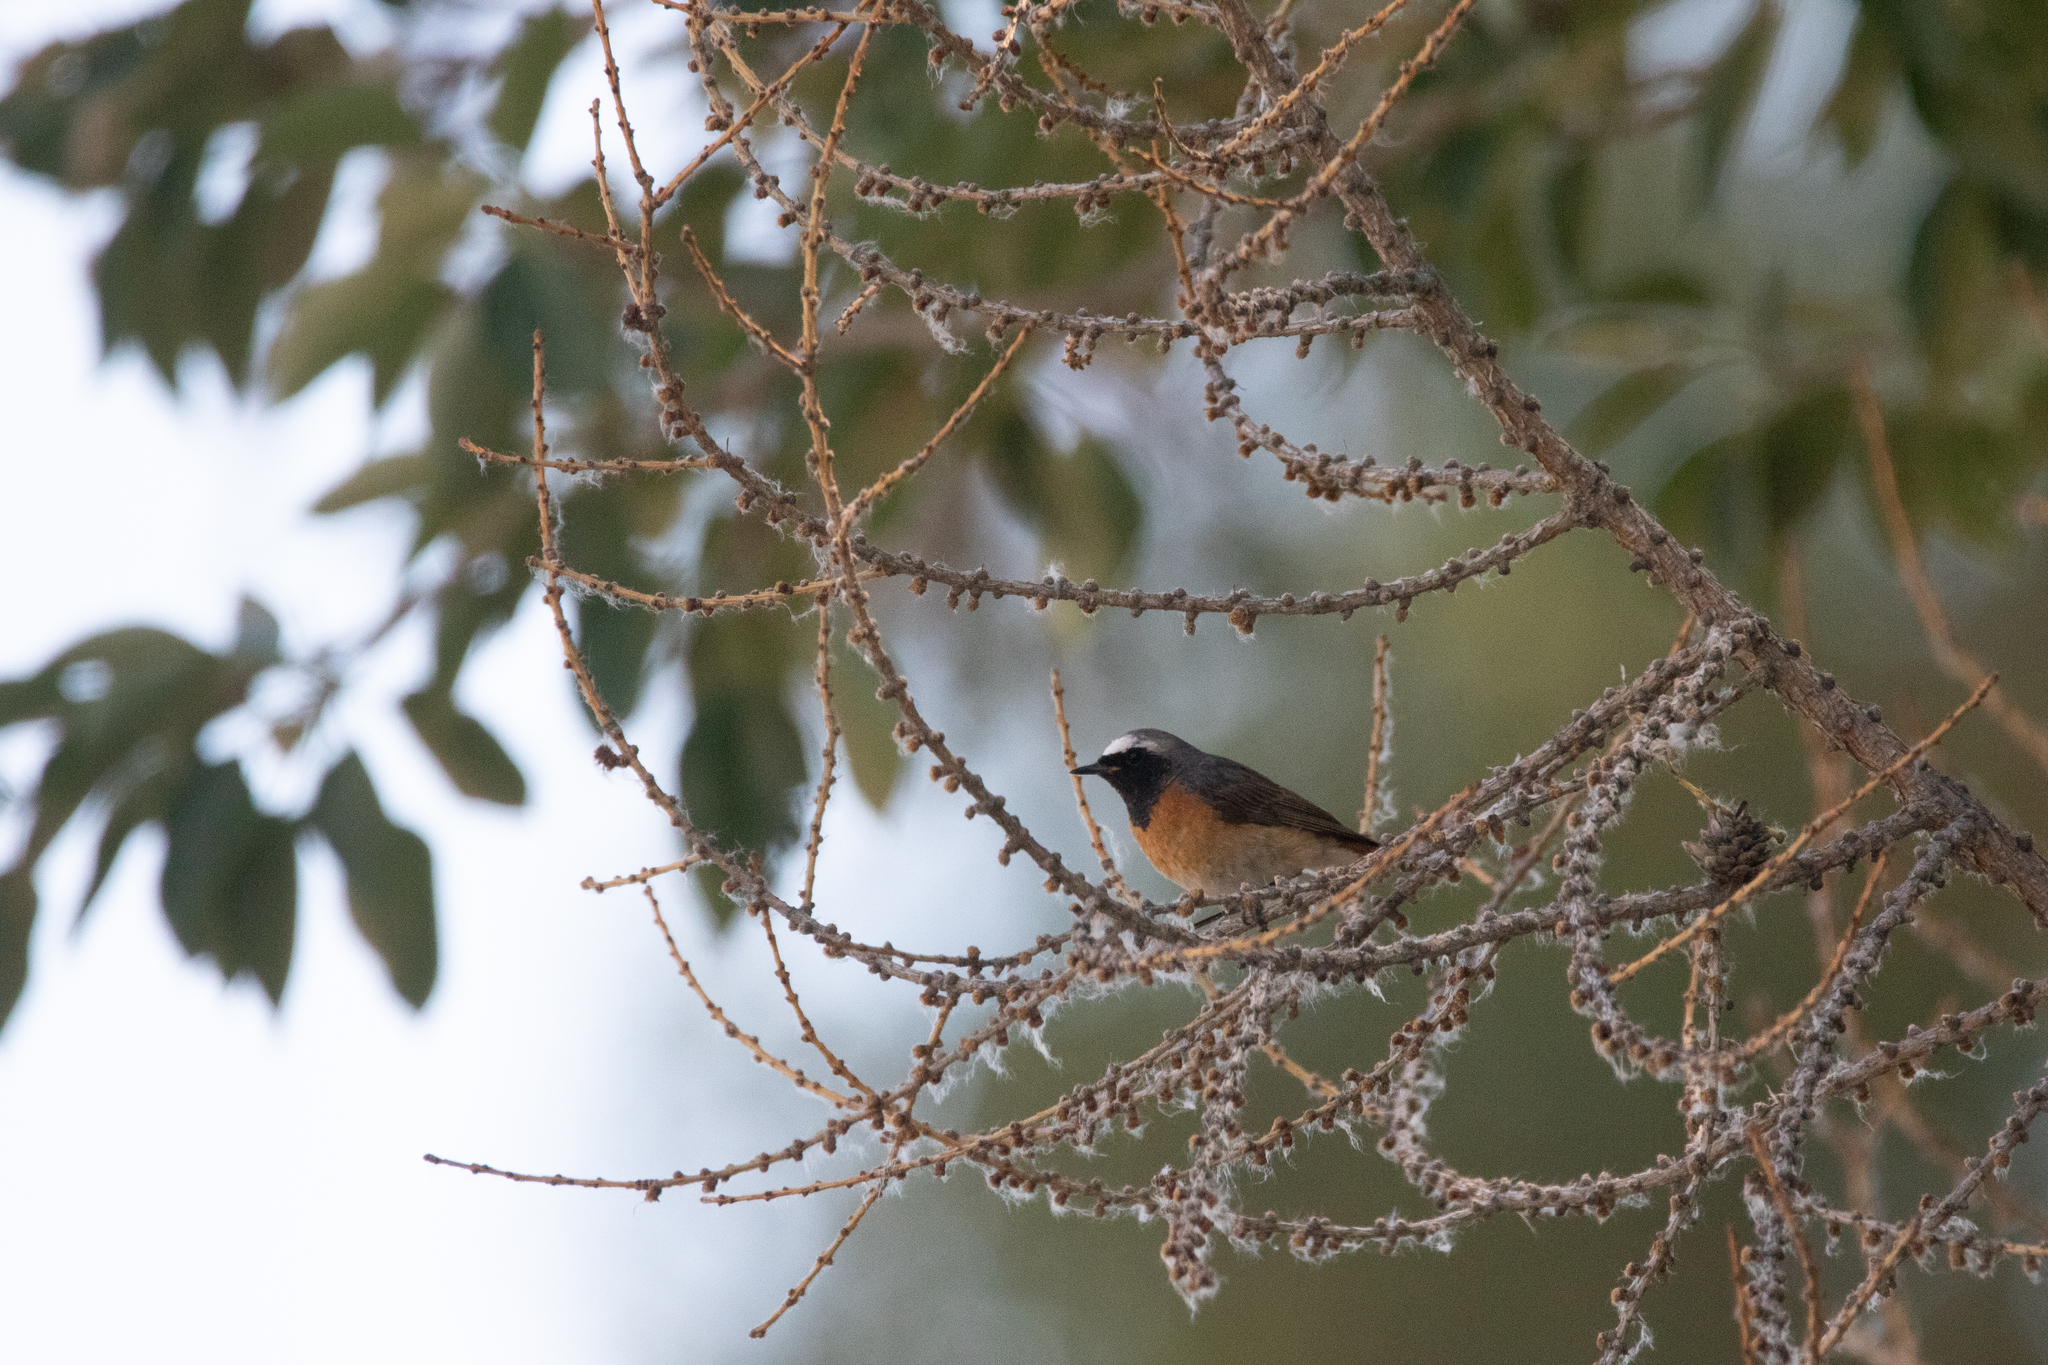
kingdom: Animalia
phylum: Chordata
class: Aves
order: Passeriformes
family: Muscicapidae
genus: Phoenicurus
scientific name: Phoenicurus phoenicurus
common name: Common redstart
